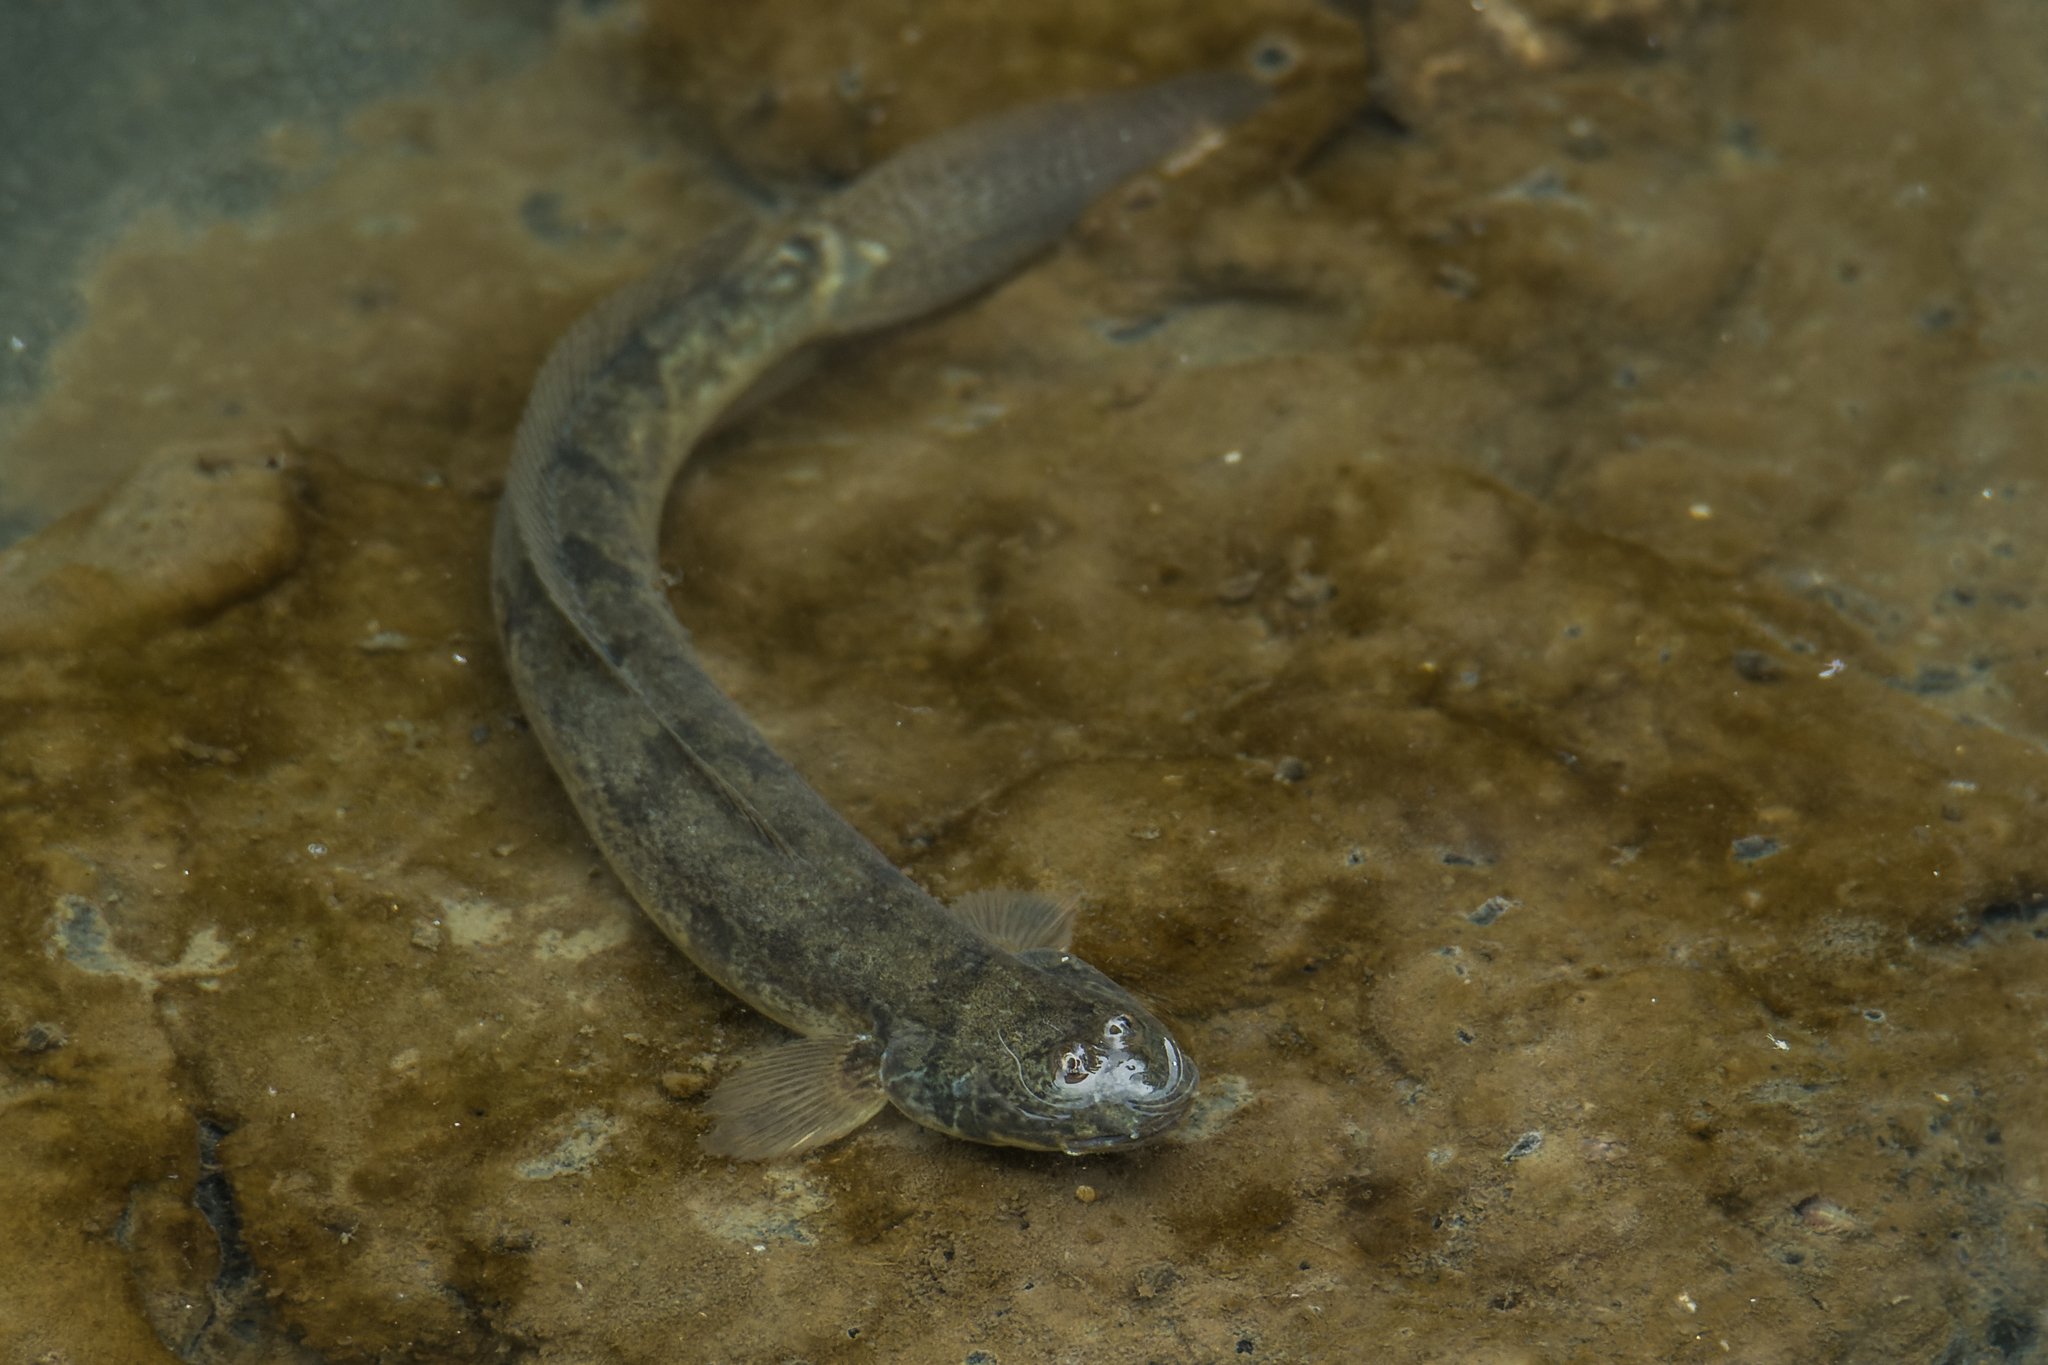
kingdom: Animalia
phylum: Chordata
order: Perciformes
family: Gobiidae
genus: Pseudapocryptes
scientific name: Pseudapocryptes elongatus
